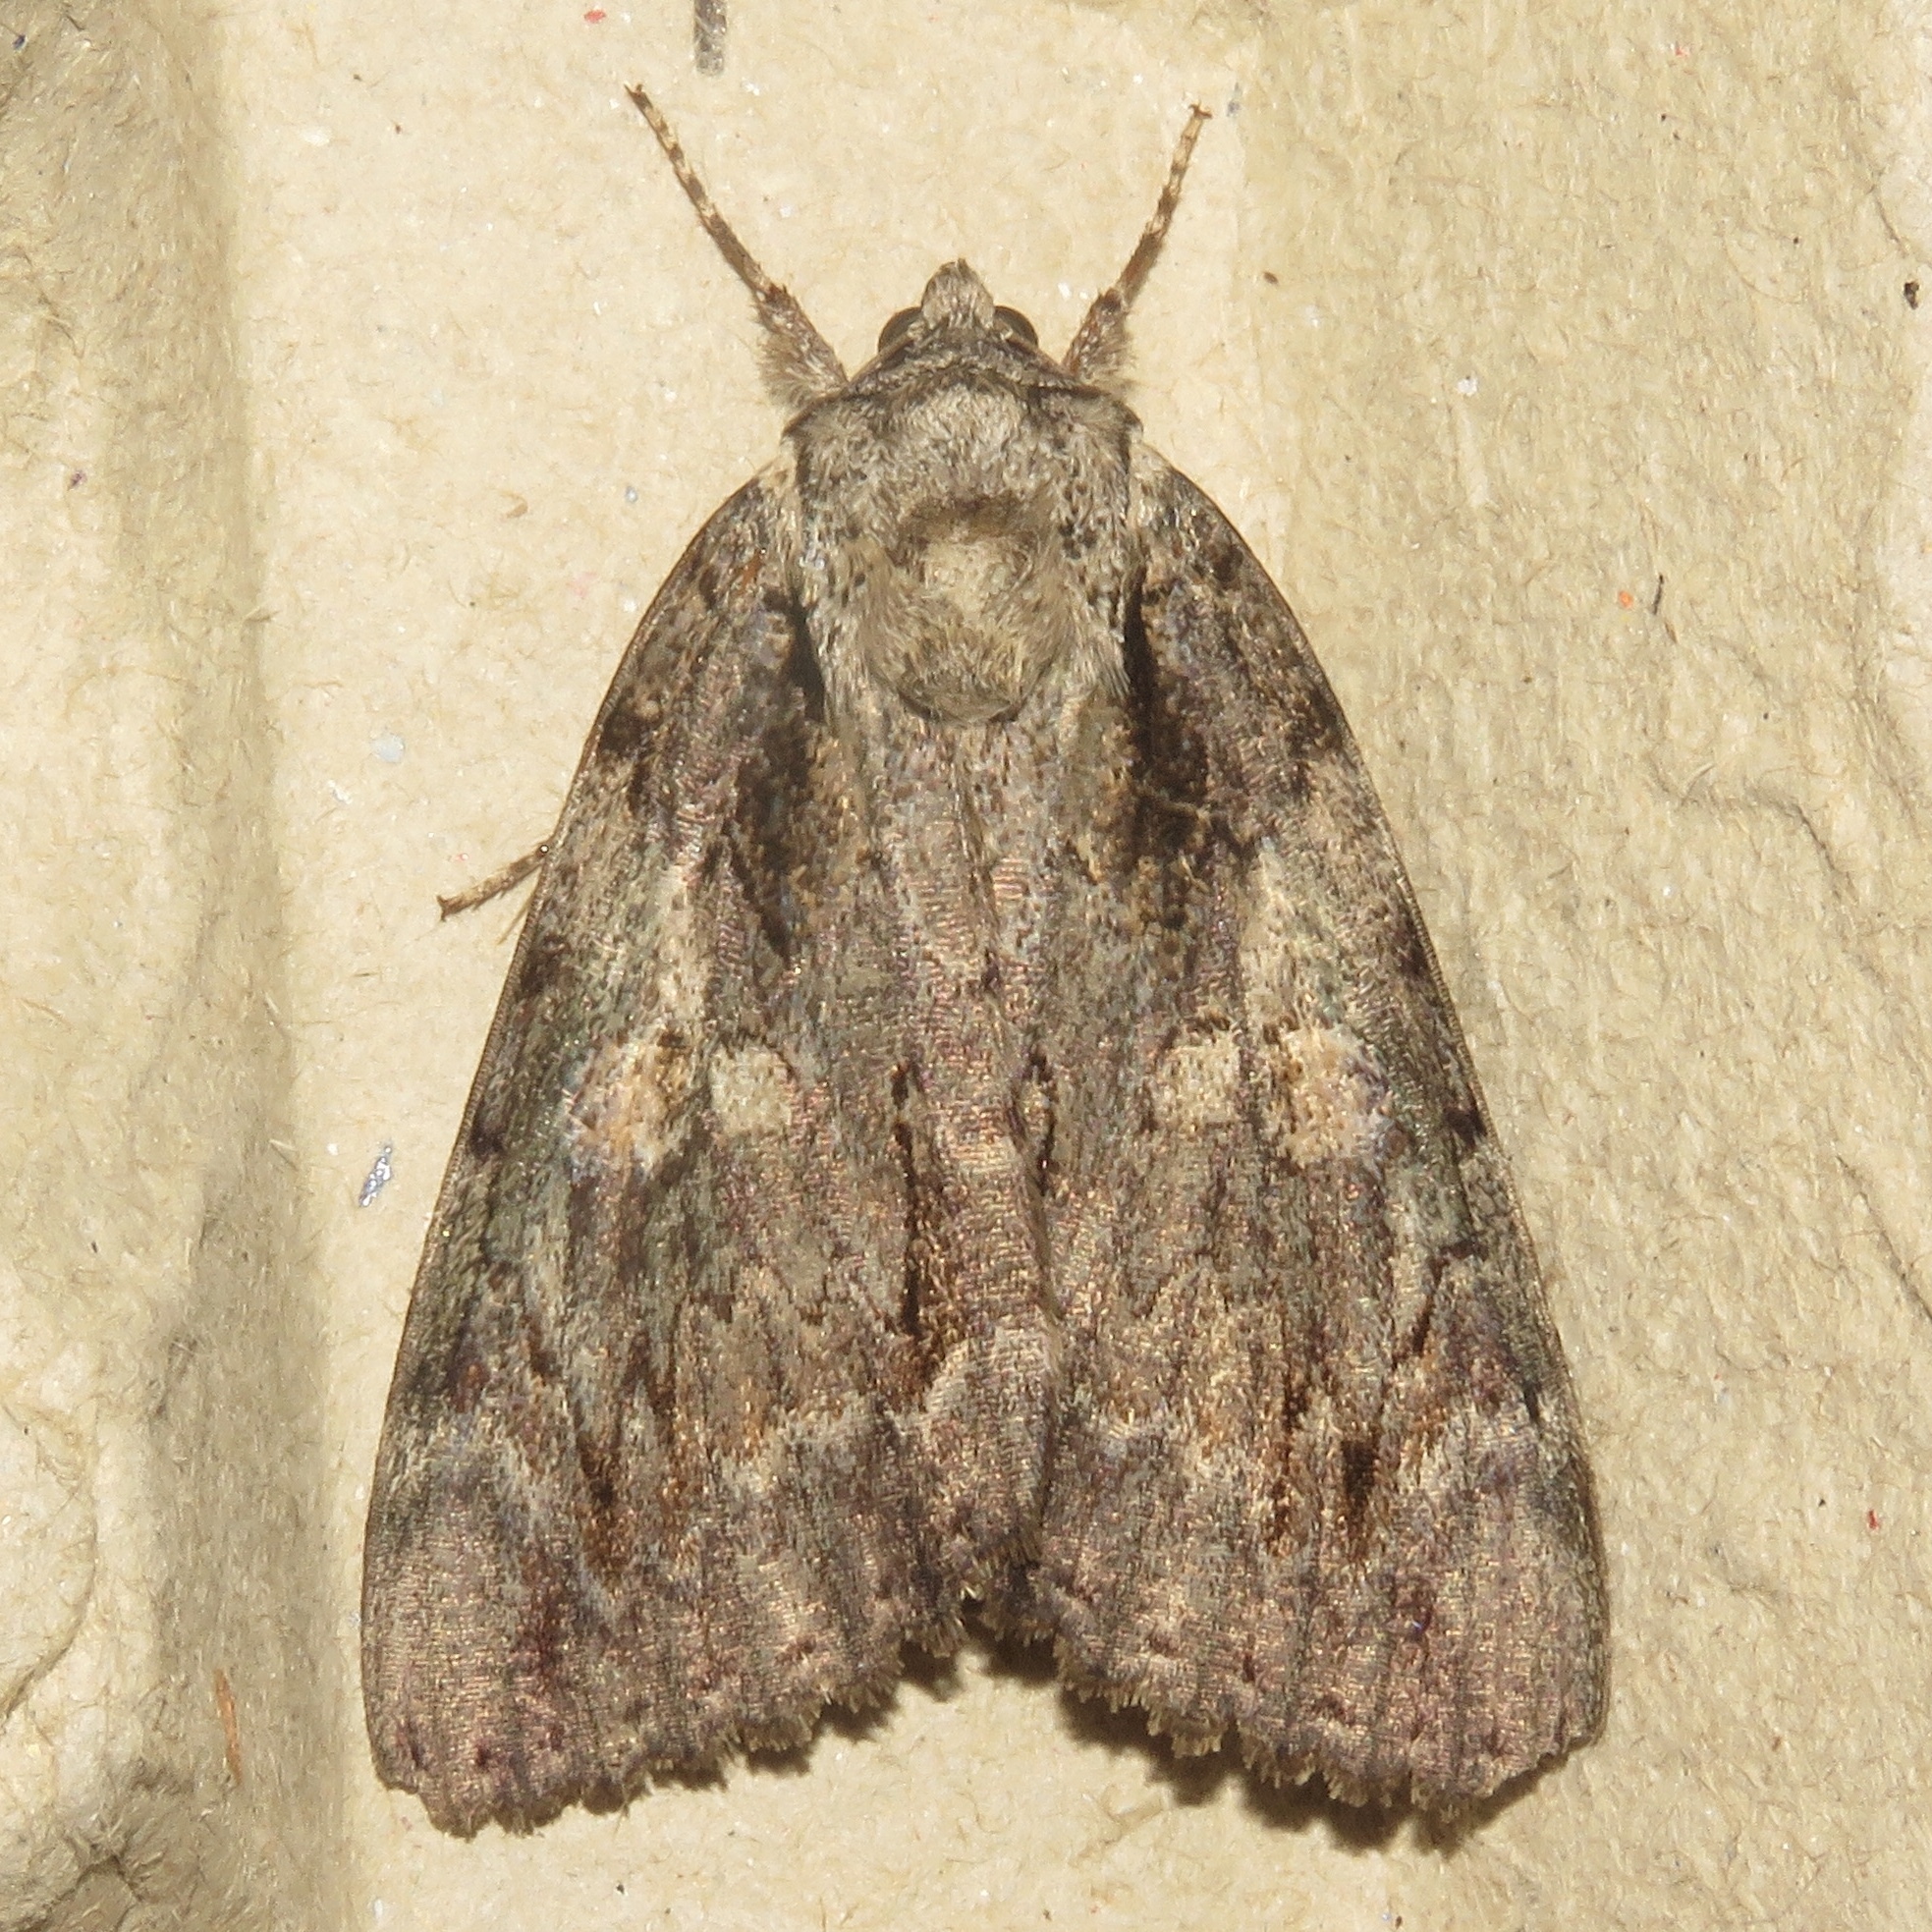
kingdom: Animalia
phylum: Arthropoda
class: Insecta
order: Lepidoptera
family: Erebidae
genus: Catocala
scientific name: Catocala neogama
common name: Bride underwing
